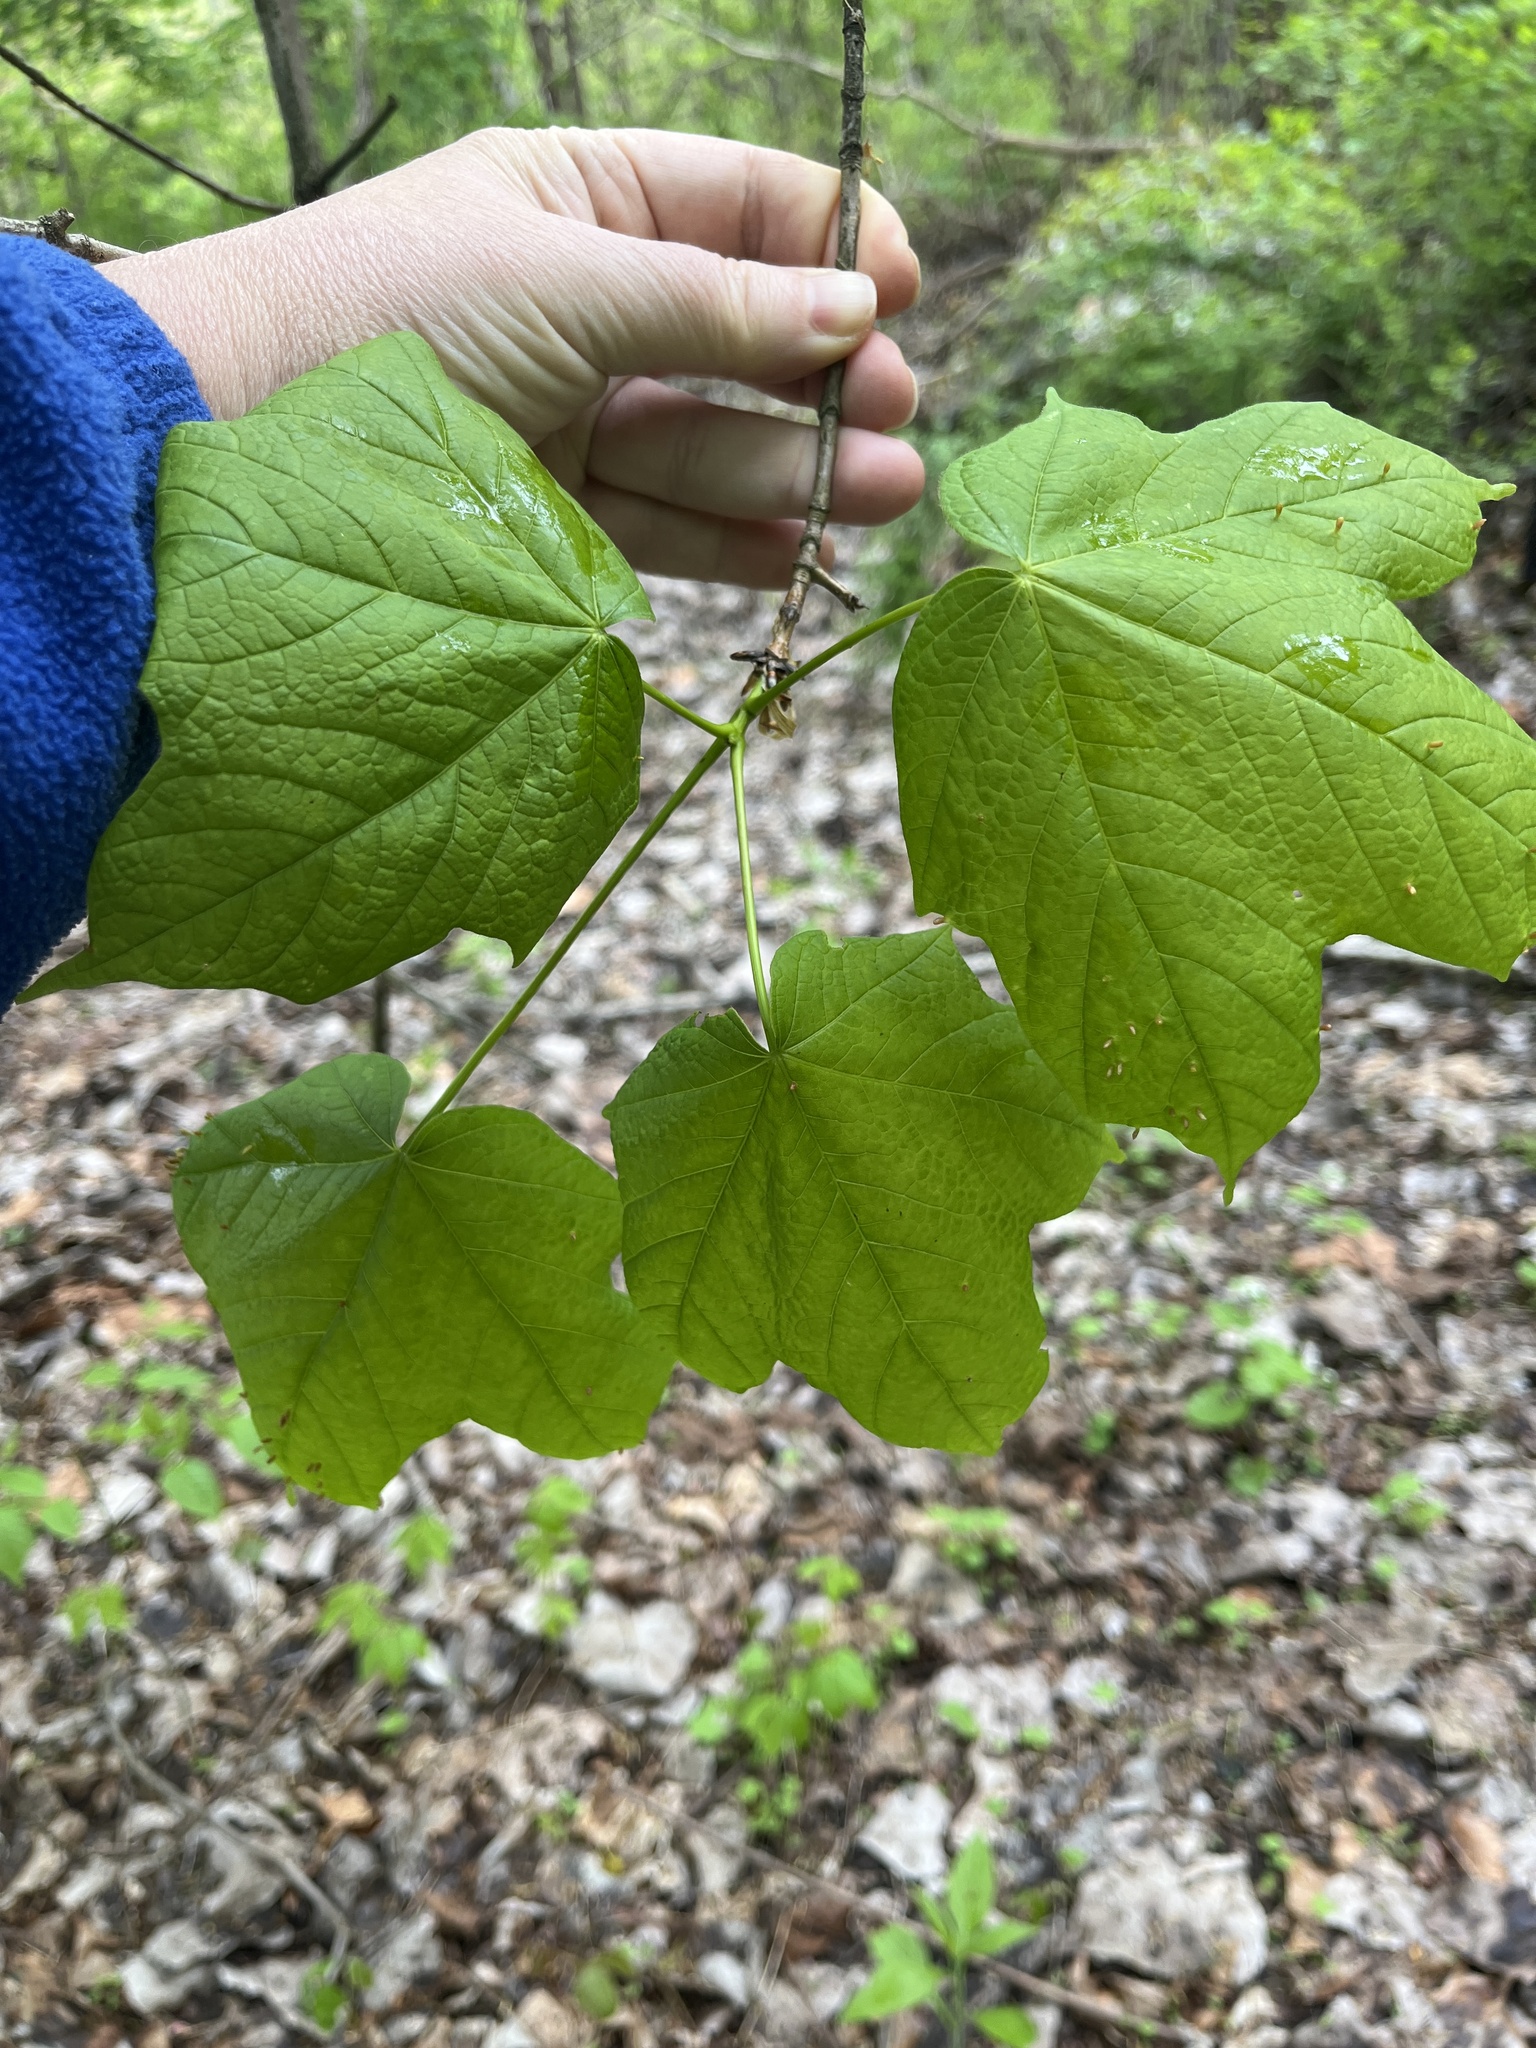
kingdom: Plantae
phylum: Tracheophyta
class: Magnoliopsida
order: Sapindales
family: Sapindaceae
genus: Acer
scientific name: Acer nigrum
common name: Black maple
